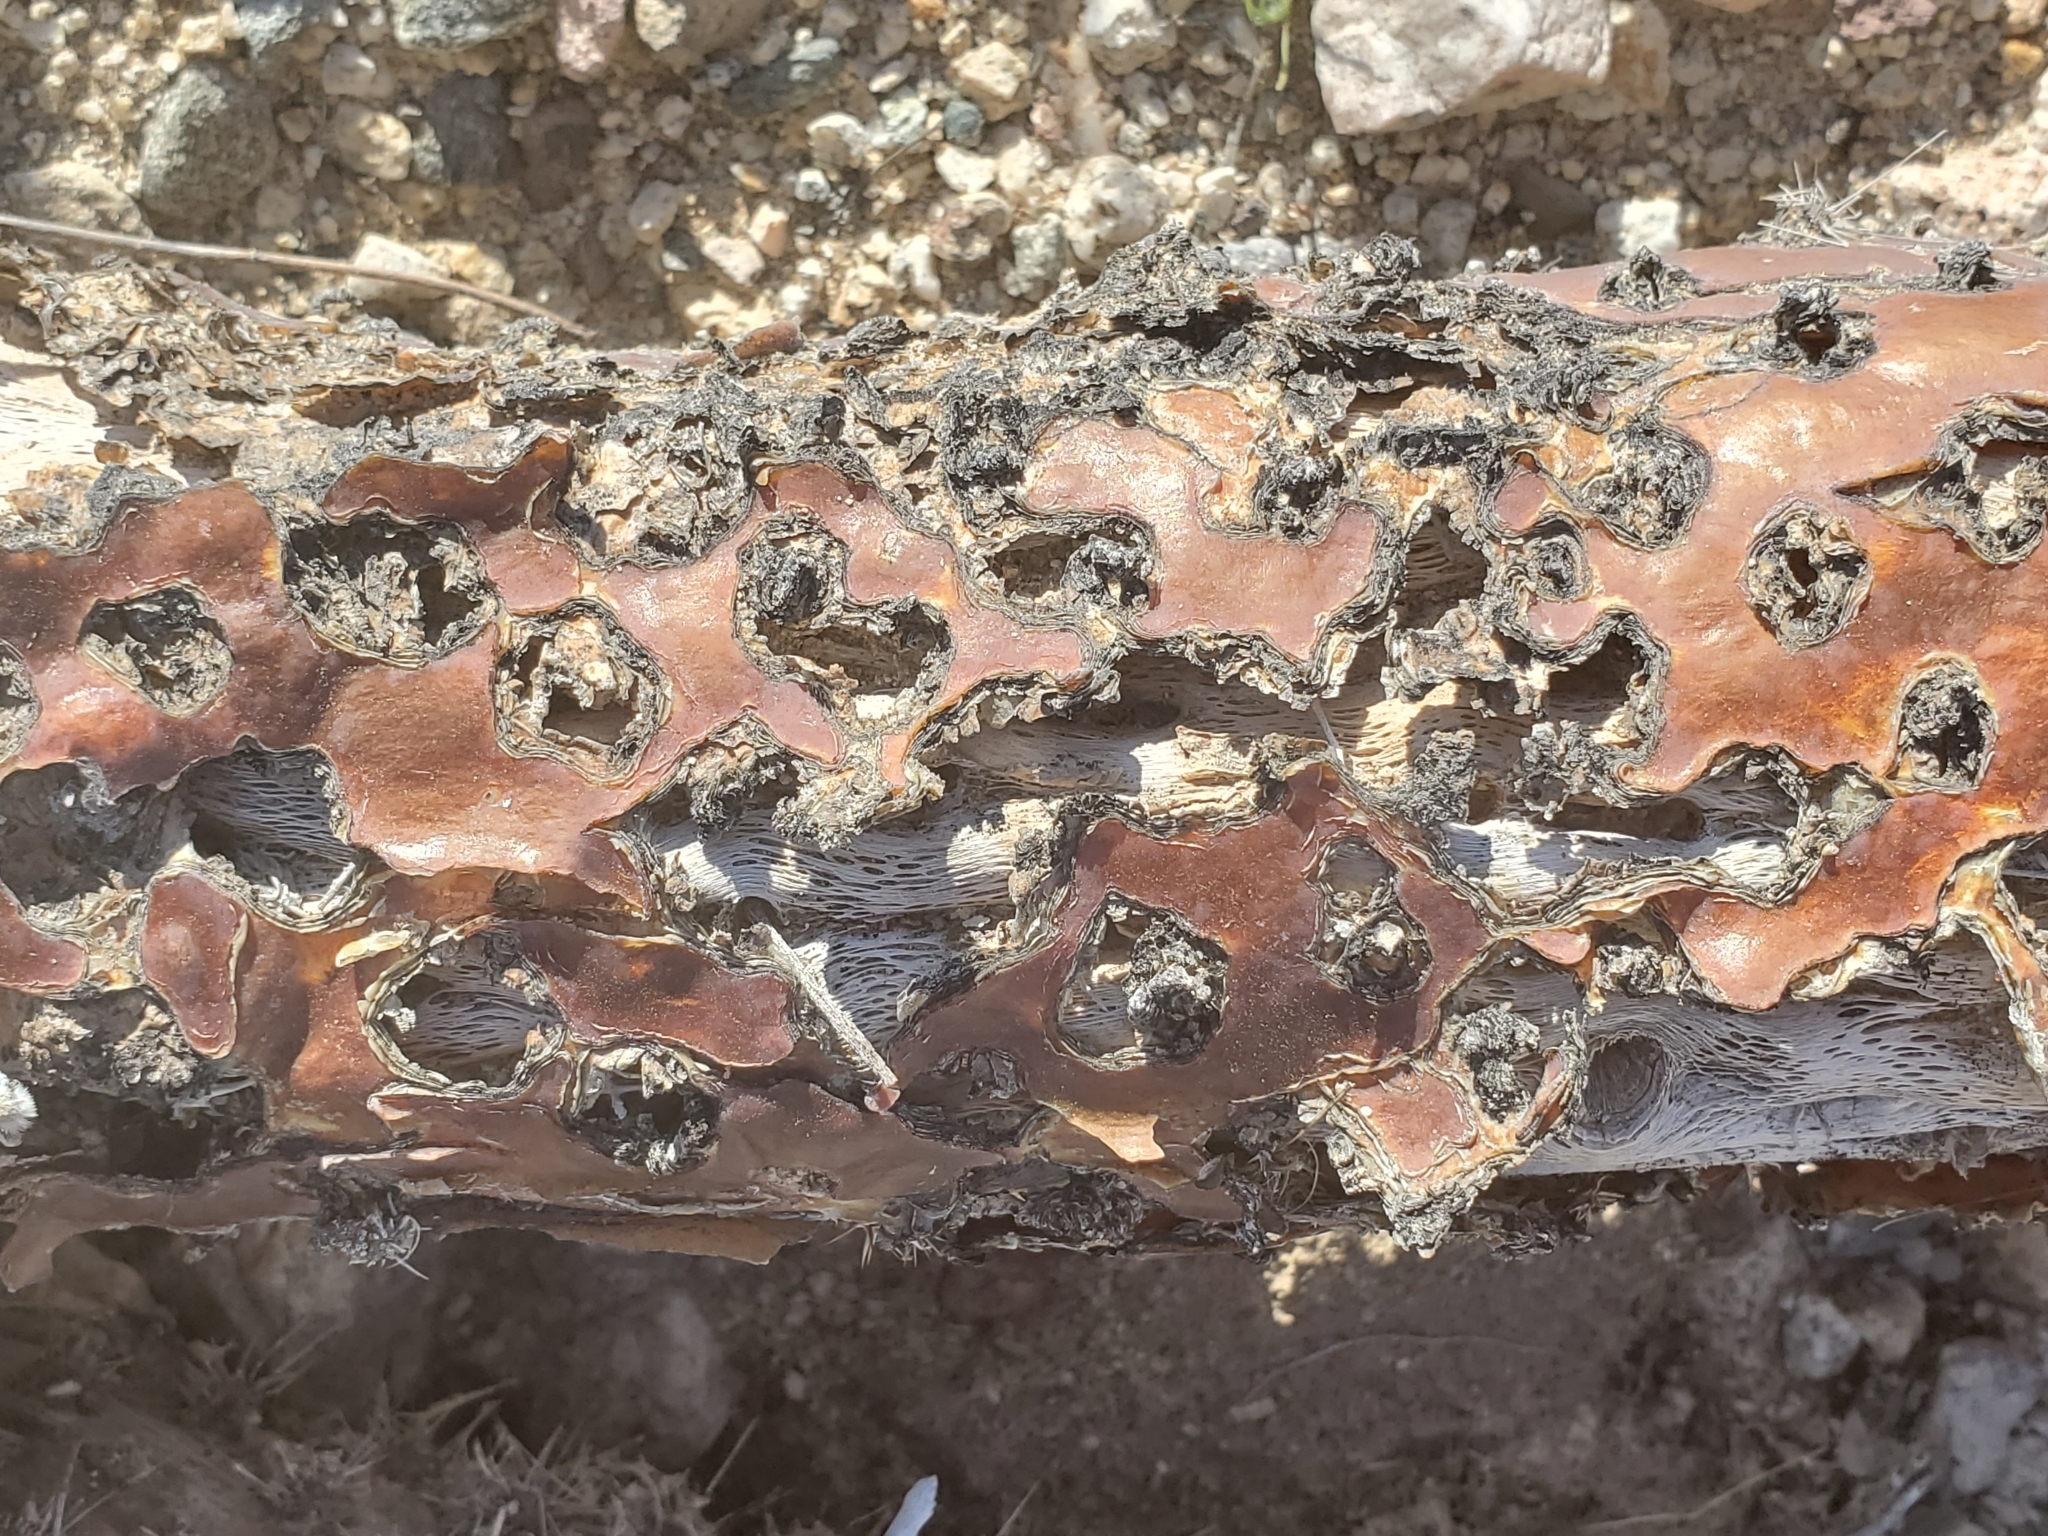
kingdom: Plantae
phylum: Tracheophyta
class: Magnoliopsida
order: Caryophyllales
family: Cactaceae
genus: Cylindropuntia
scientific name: Cylindropuntia munzii
